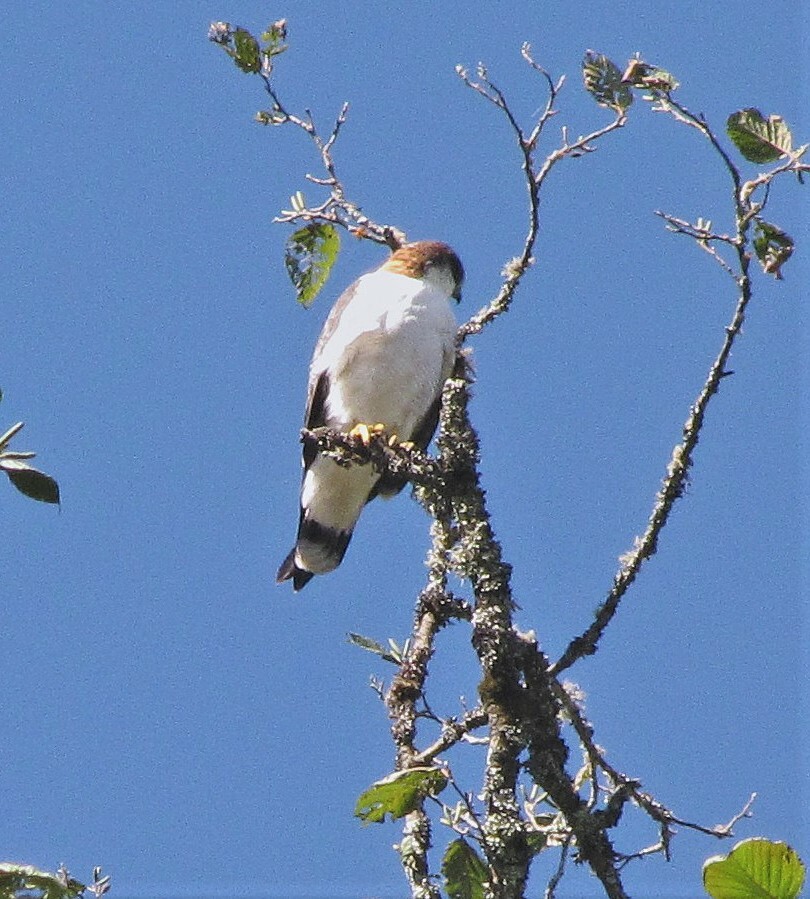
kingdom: Animalia
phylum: Chordata
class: Aves
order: Accipitriformes
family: Accipitridae
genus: Buteo
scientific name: Buteo polyosoma
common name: Variable hawk
